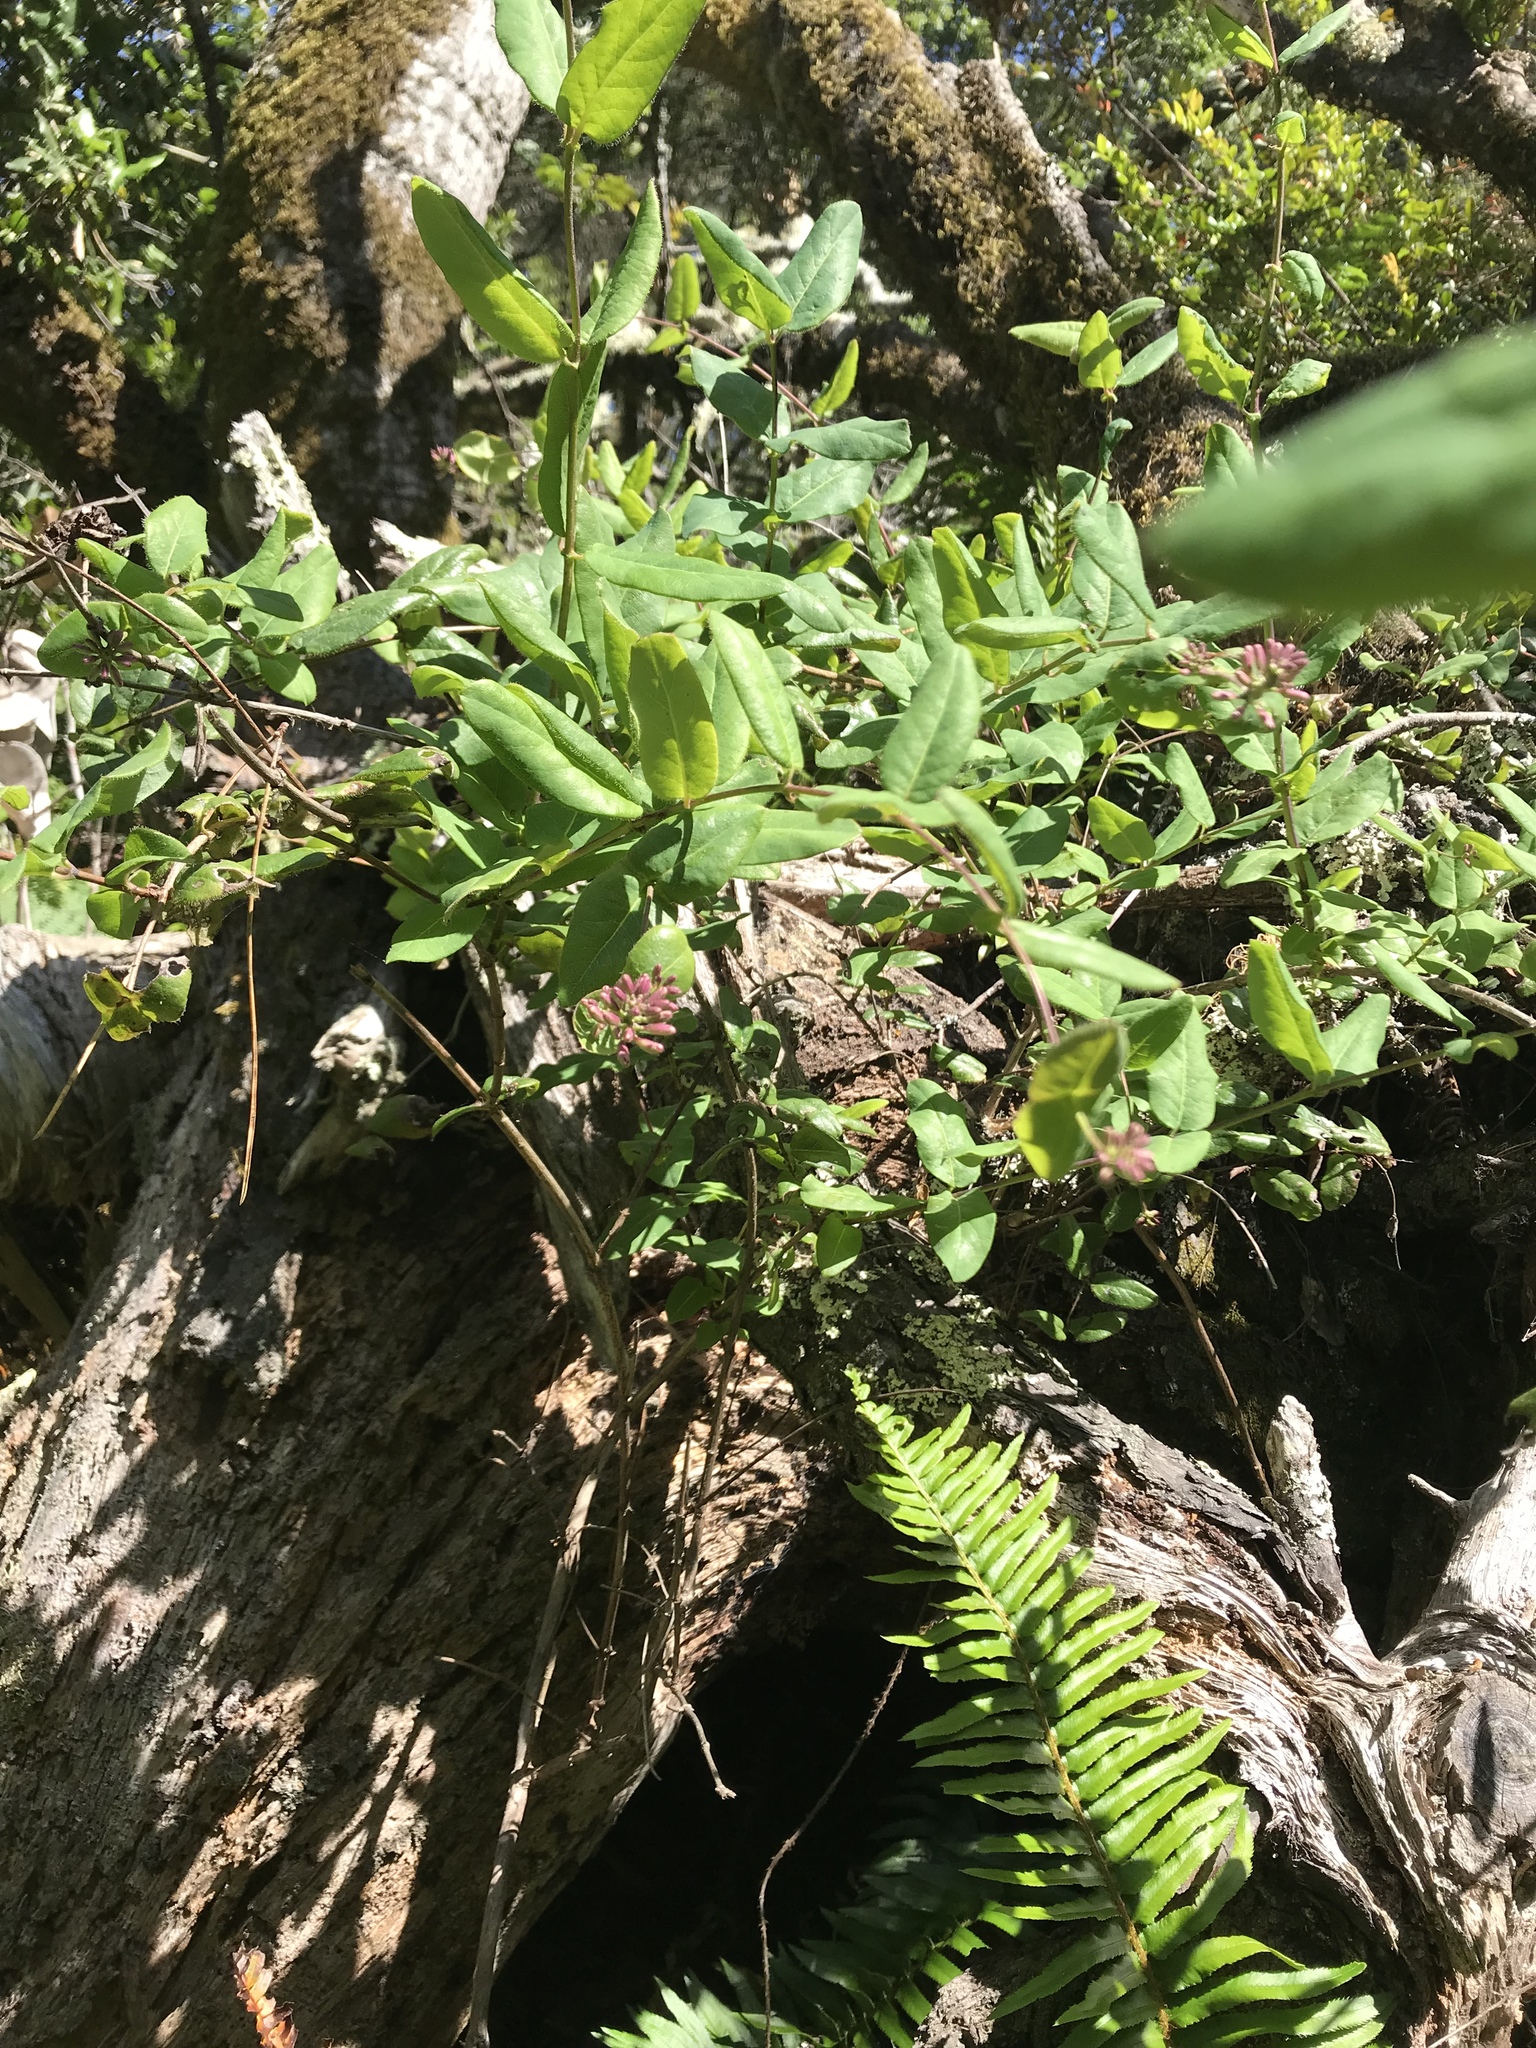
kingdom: Plantae
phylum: Tracheophyta
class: Magnoliopsida
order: Dipsacales
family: Caprifoliaceae
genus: Lonicera
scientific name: Lonicera hispidula
